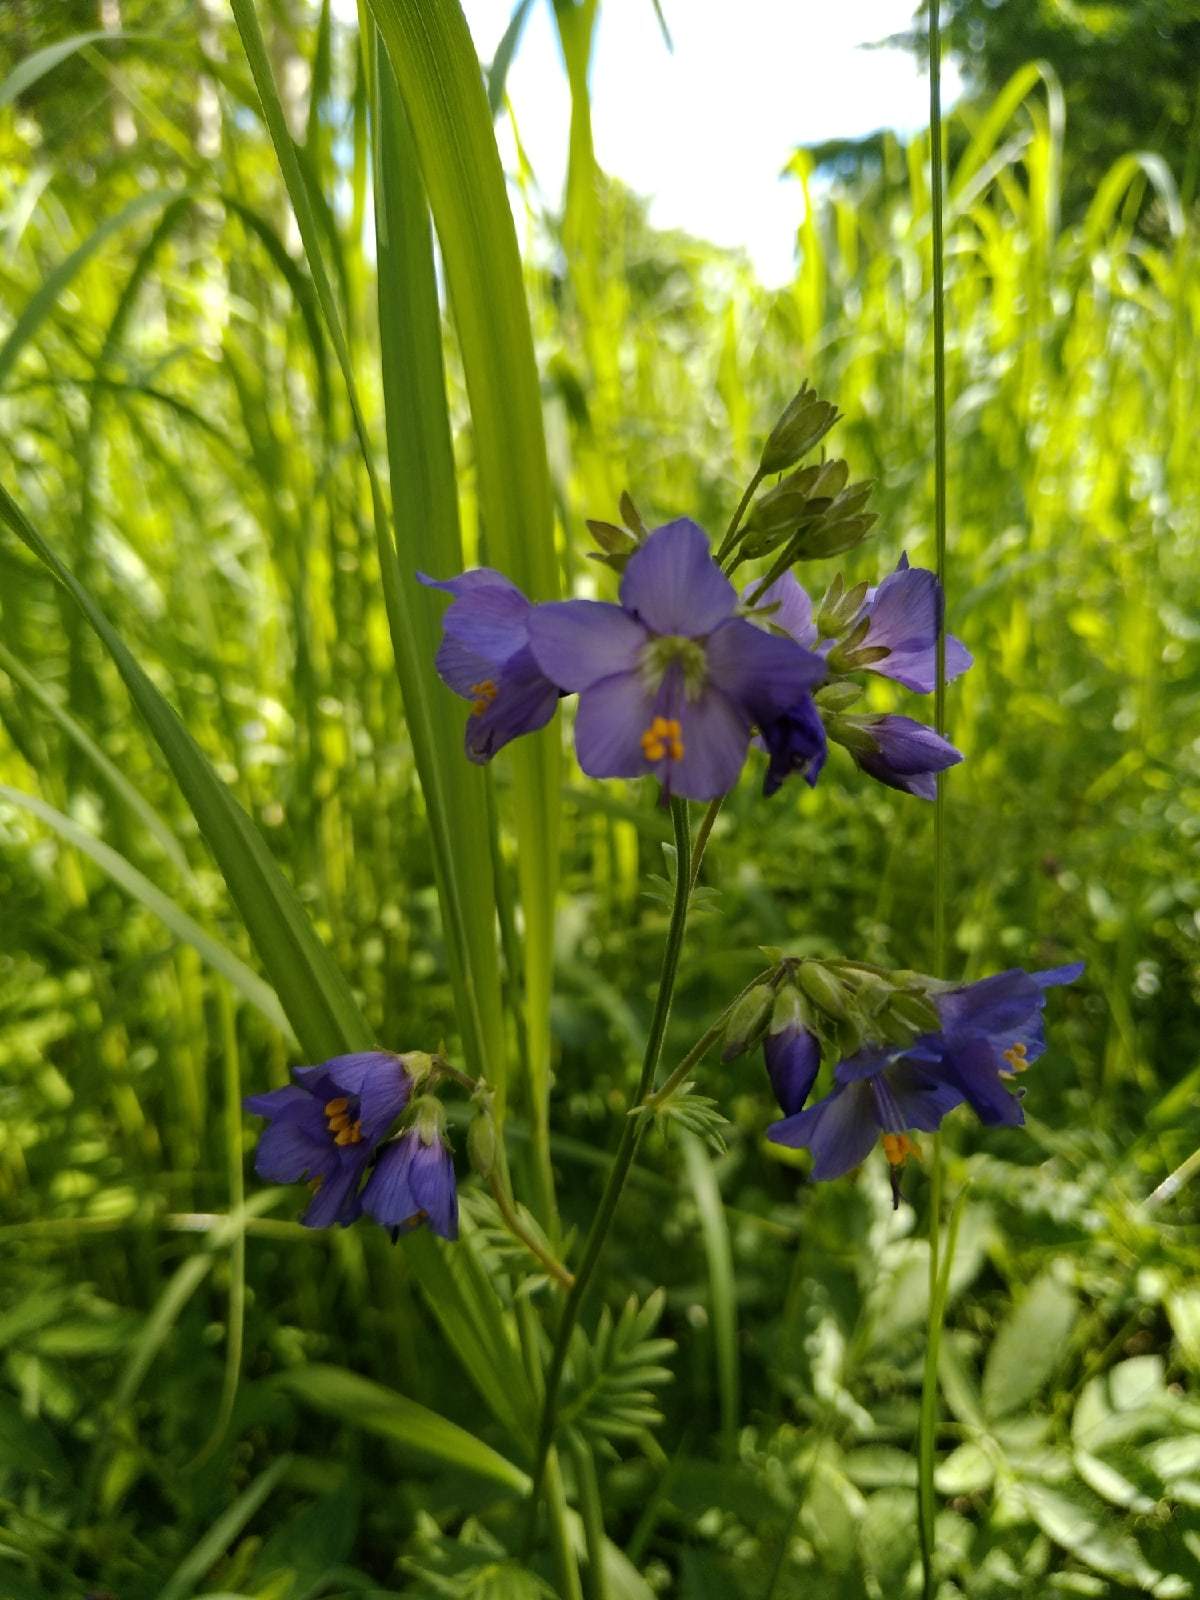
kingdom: Plantae
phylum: Tracheophyta
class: Magnoliopsida
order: Ericales
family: Polemoniaceae
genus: Polemonium
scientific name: Polemonium caeruleum
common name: Jacob's-ladder
